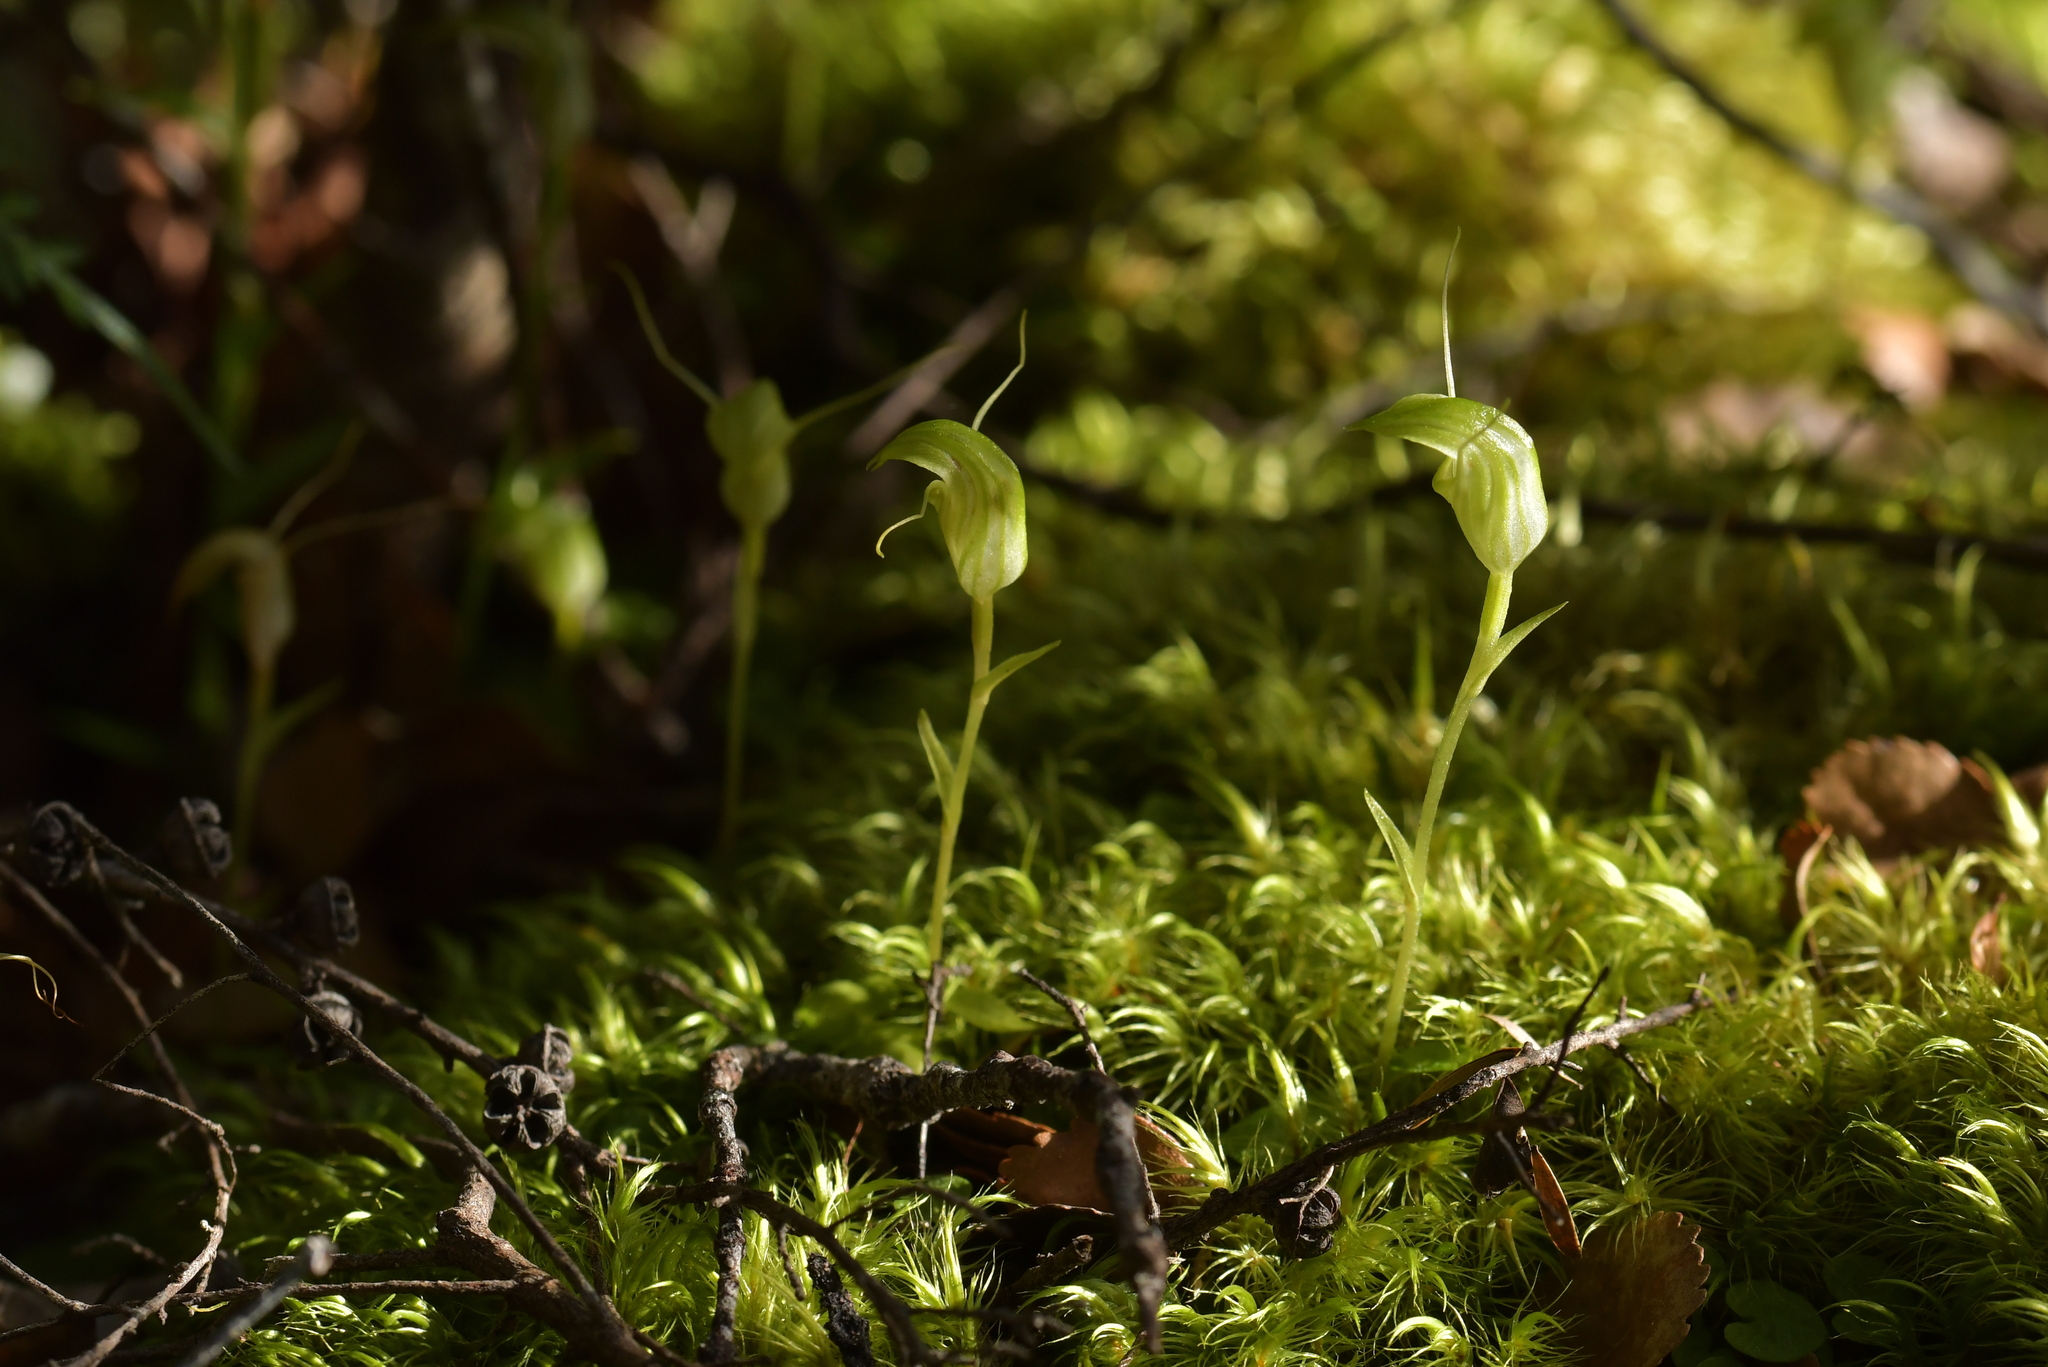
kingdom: Plantae
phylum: Tracheophyta
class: Liliopsida
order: Asparagales
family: Orchidaceae
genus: Pterostylis
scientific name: Pterostylis trullifolia
